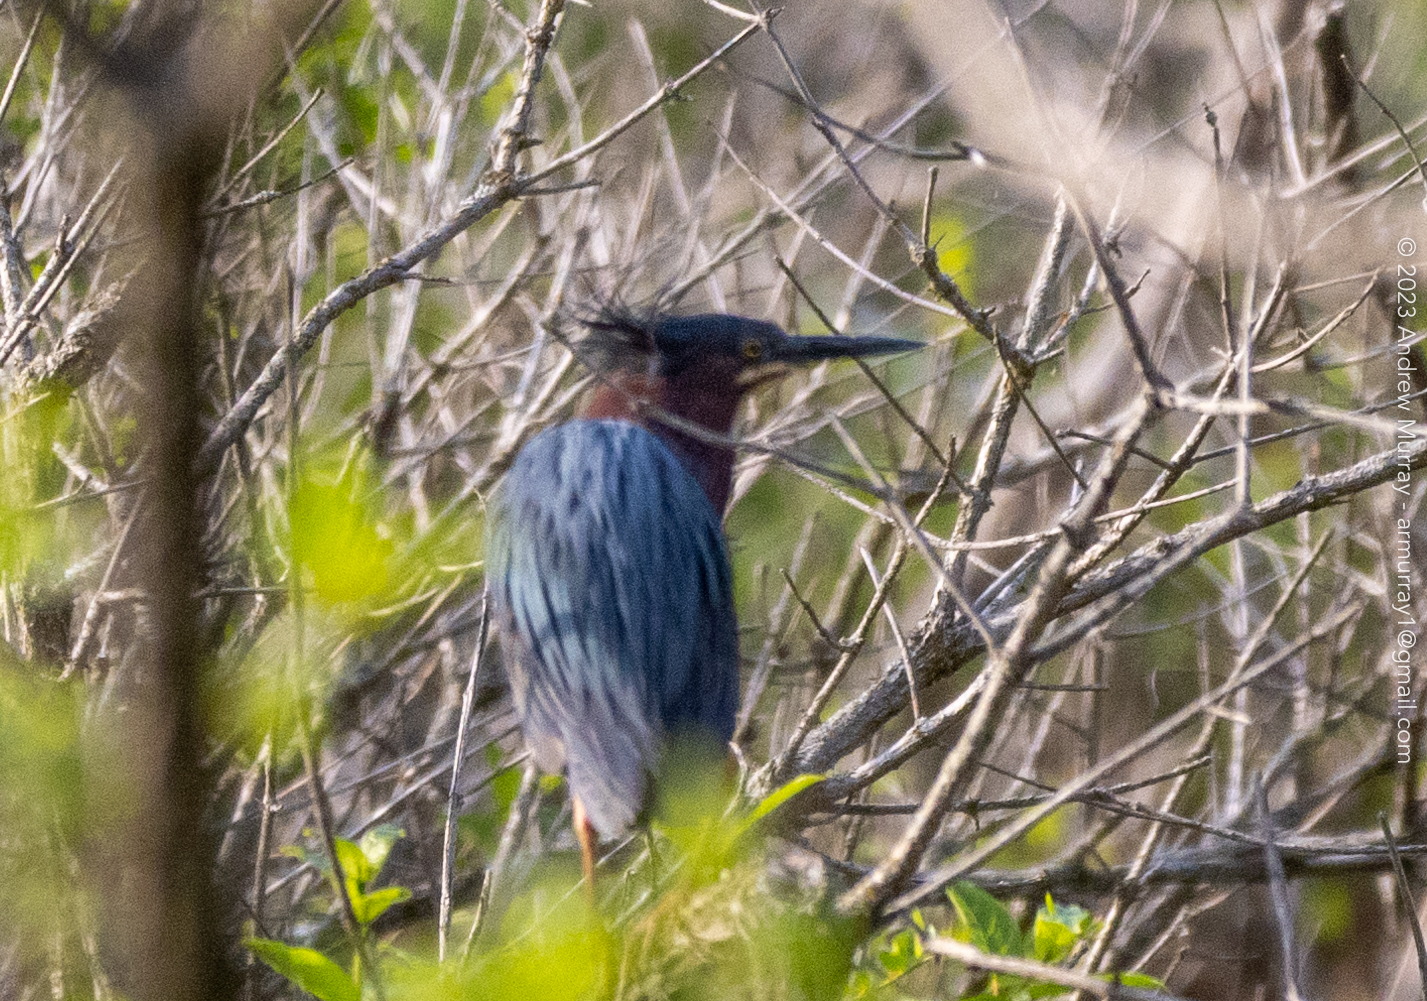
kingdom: Animalia
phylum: Chordata
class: Aves
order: Pelecaniformes
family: Ardeidae
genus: Butorides
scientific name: Butorides virescens
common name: Green heron
